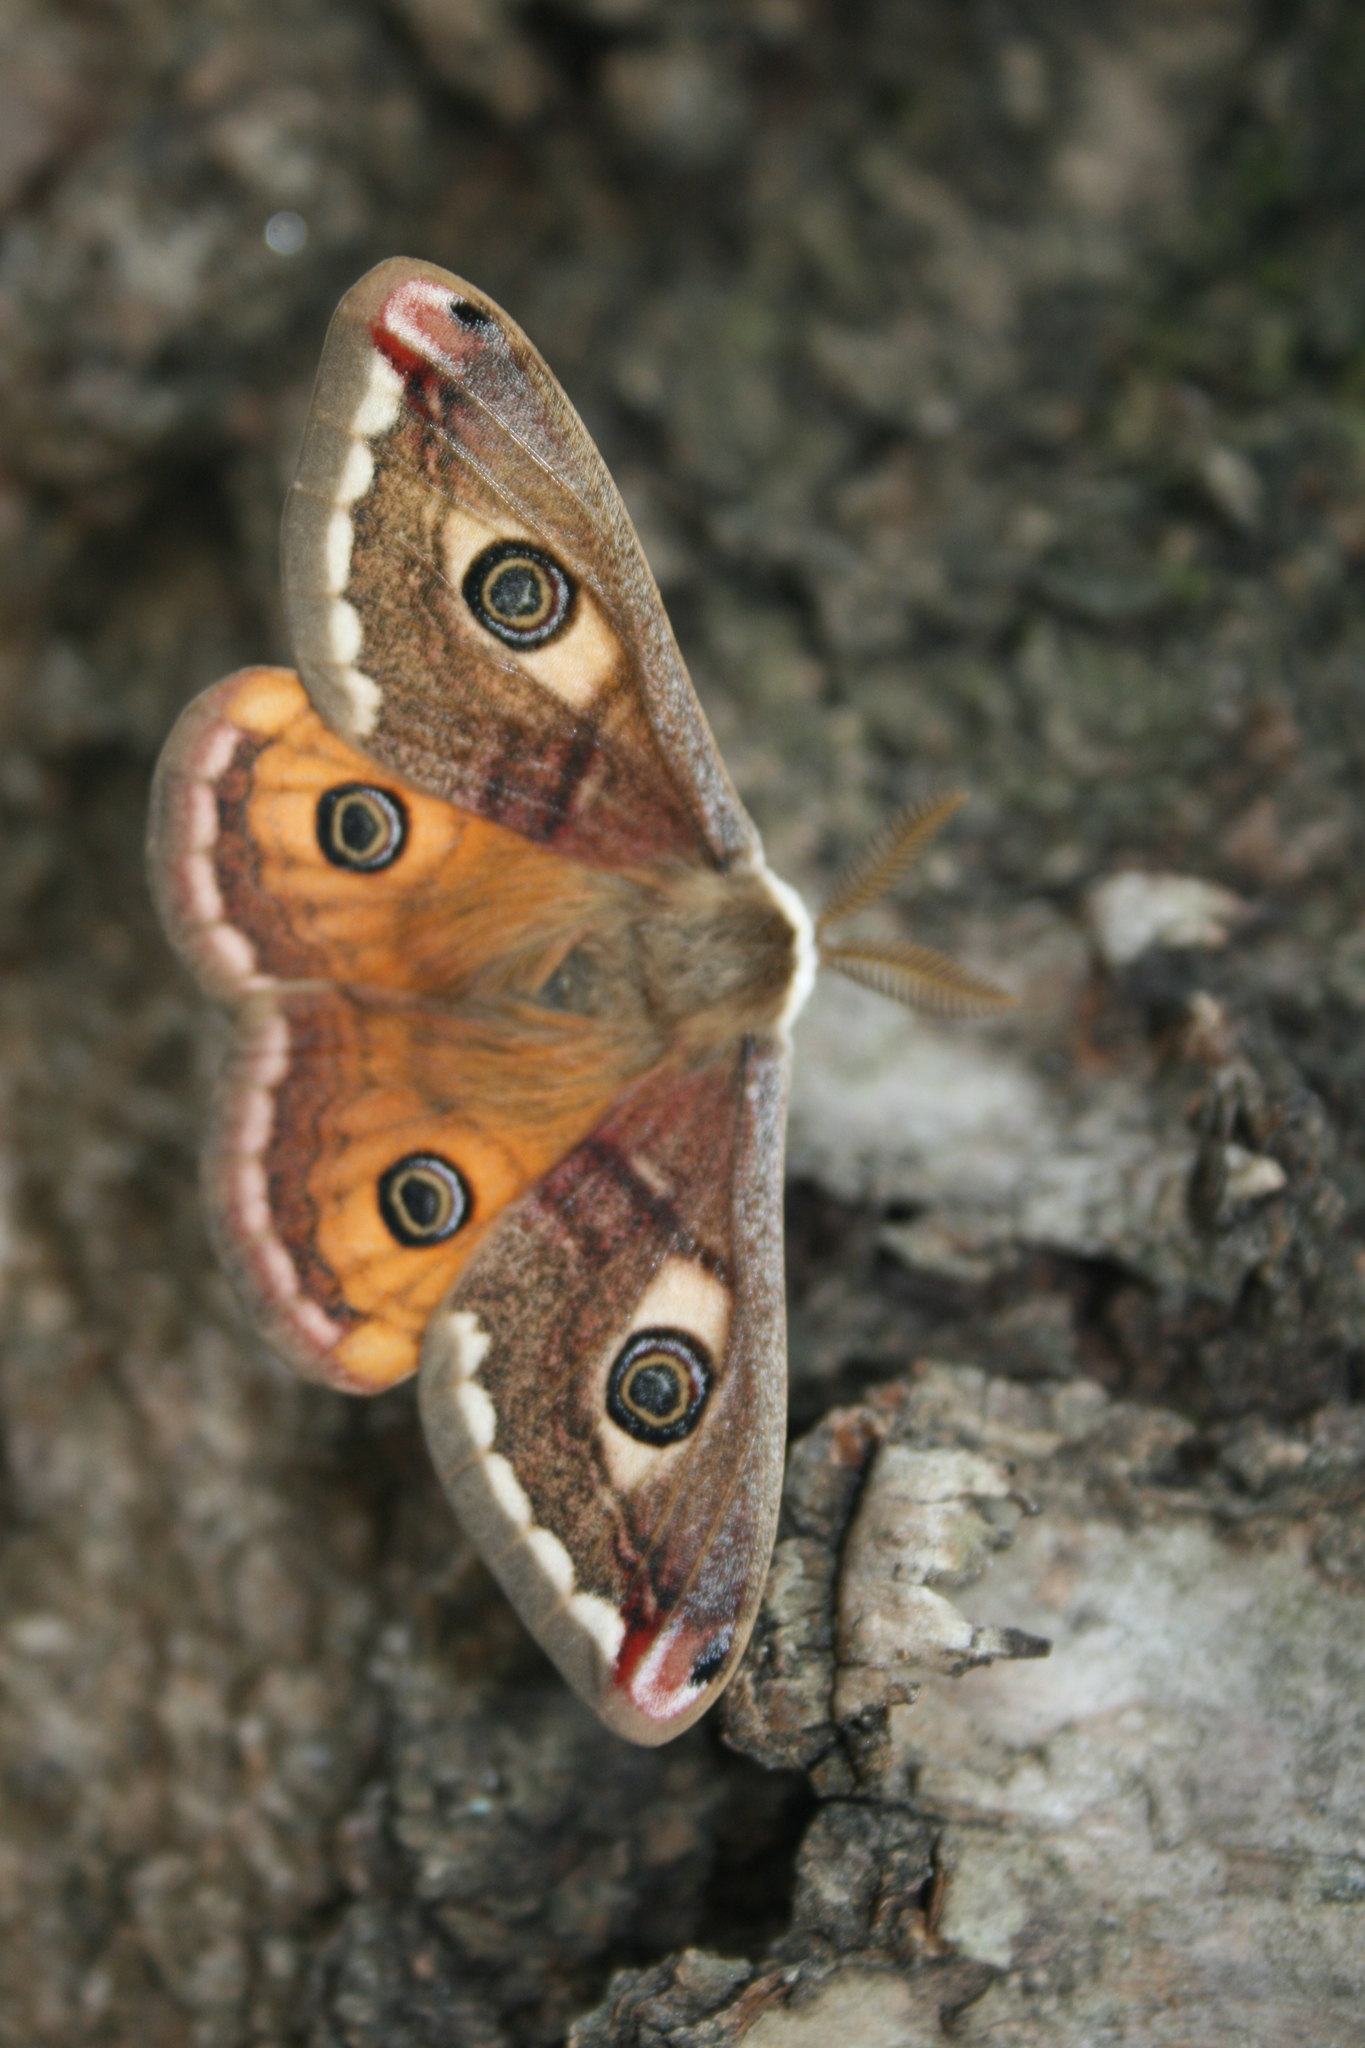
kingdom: Animalia
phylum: Arthropoda
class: Insecta
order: Lepidoptera
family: Saturniidae
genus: Saturnia
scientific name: Saturnia pavonia
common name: Emperor moth
